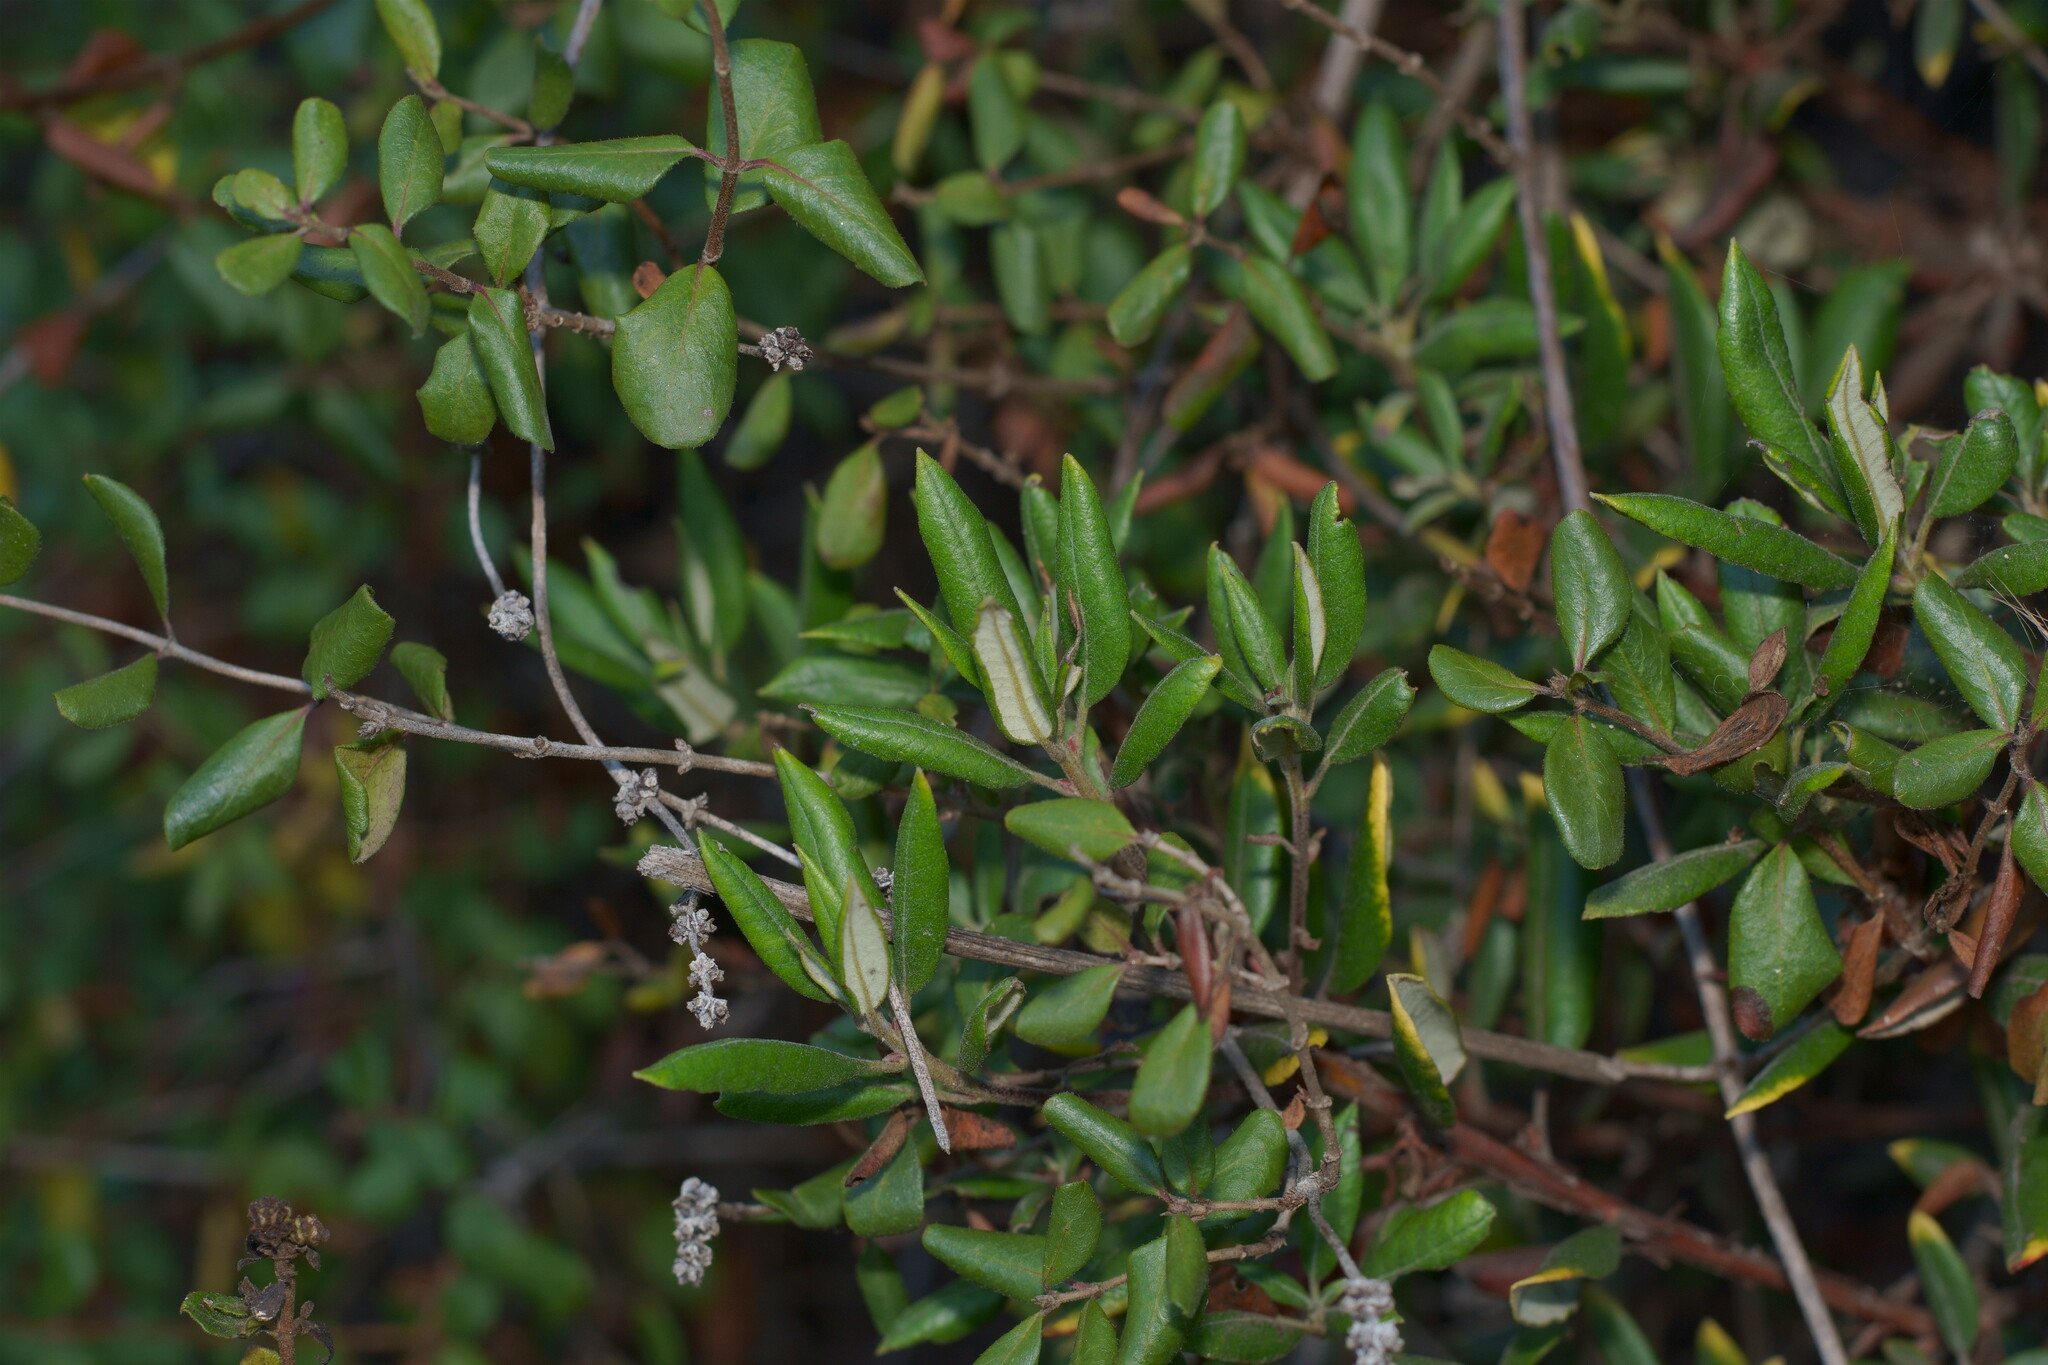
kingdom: Plantae
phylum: Tracheophyta
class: Magnoliopsida
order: Ericales
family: Ericaceae
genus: Arctostaphylos
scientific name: Arctostaphylos bicolor
